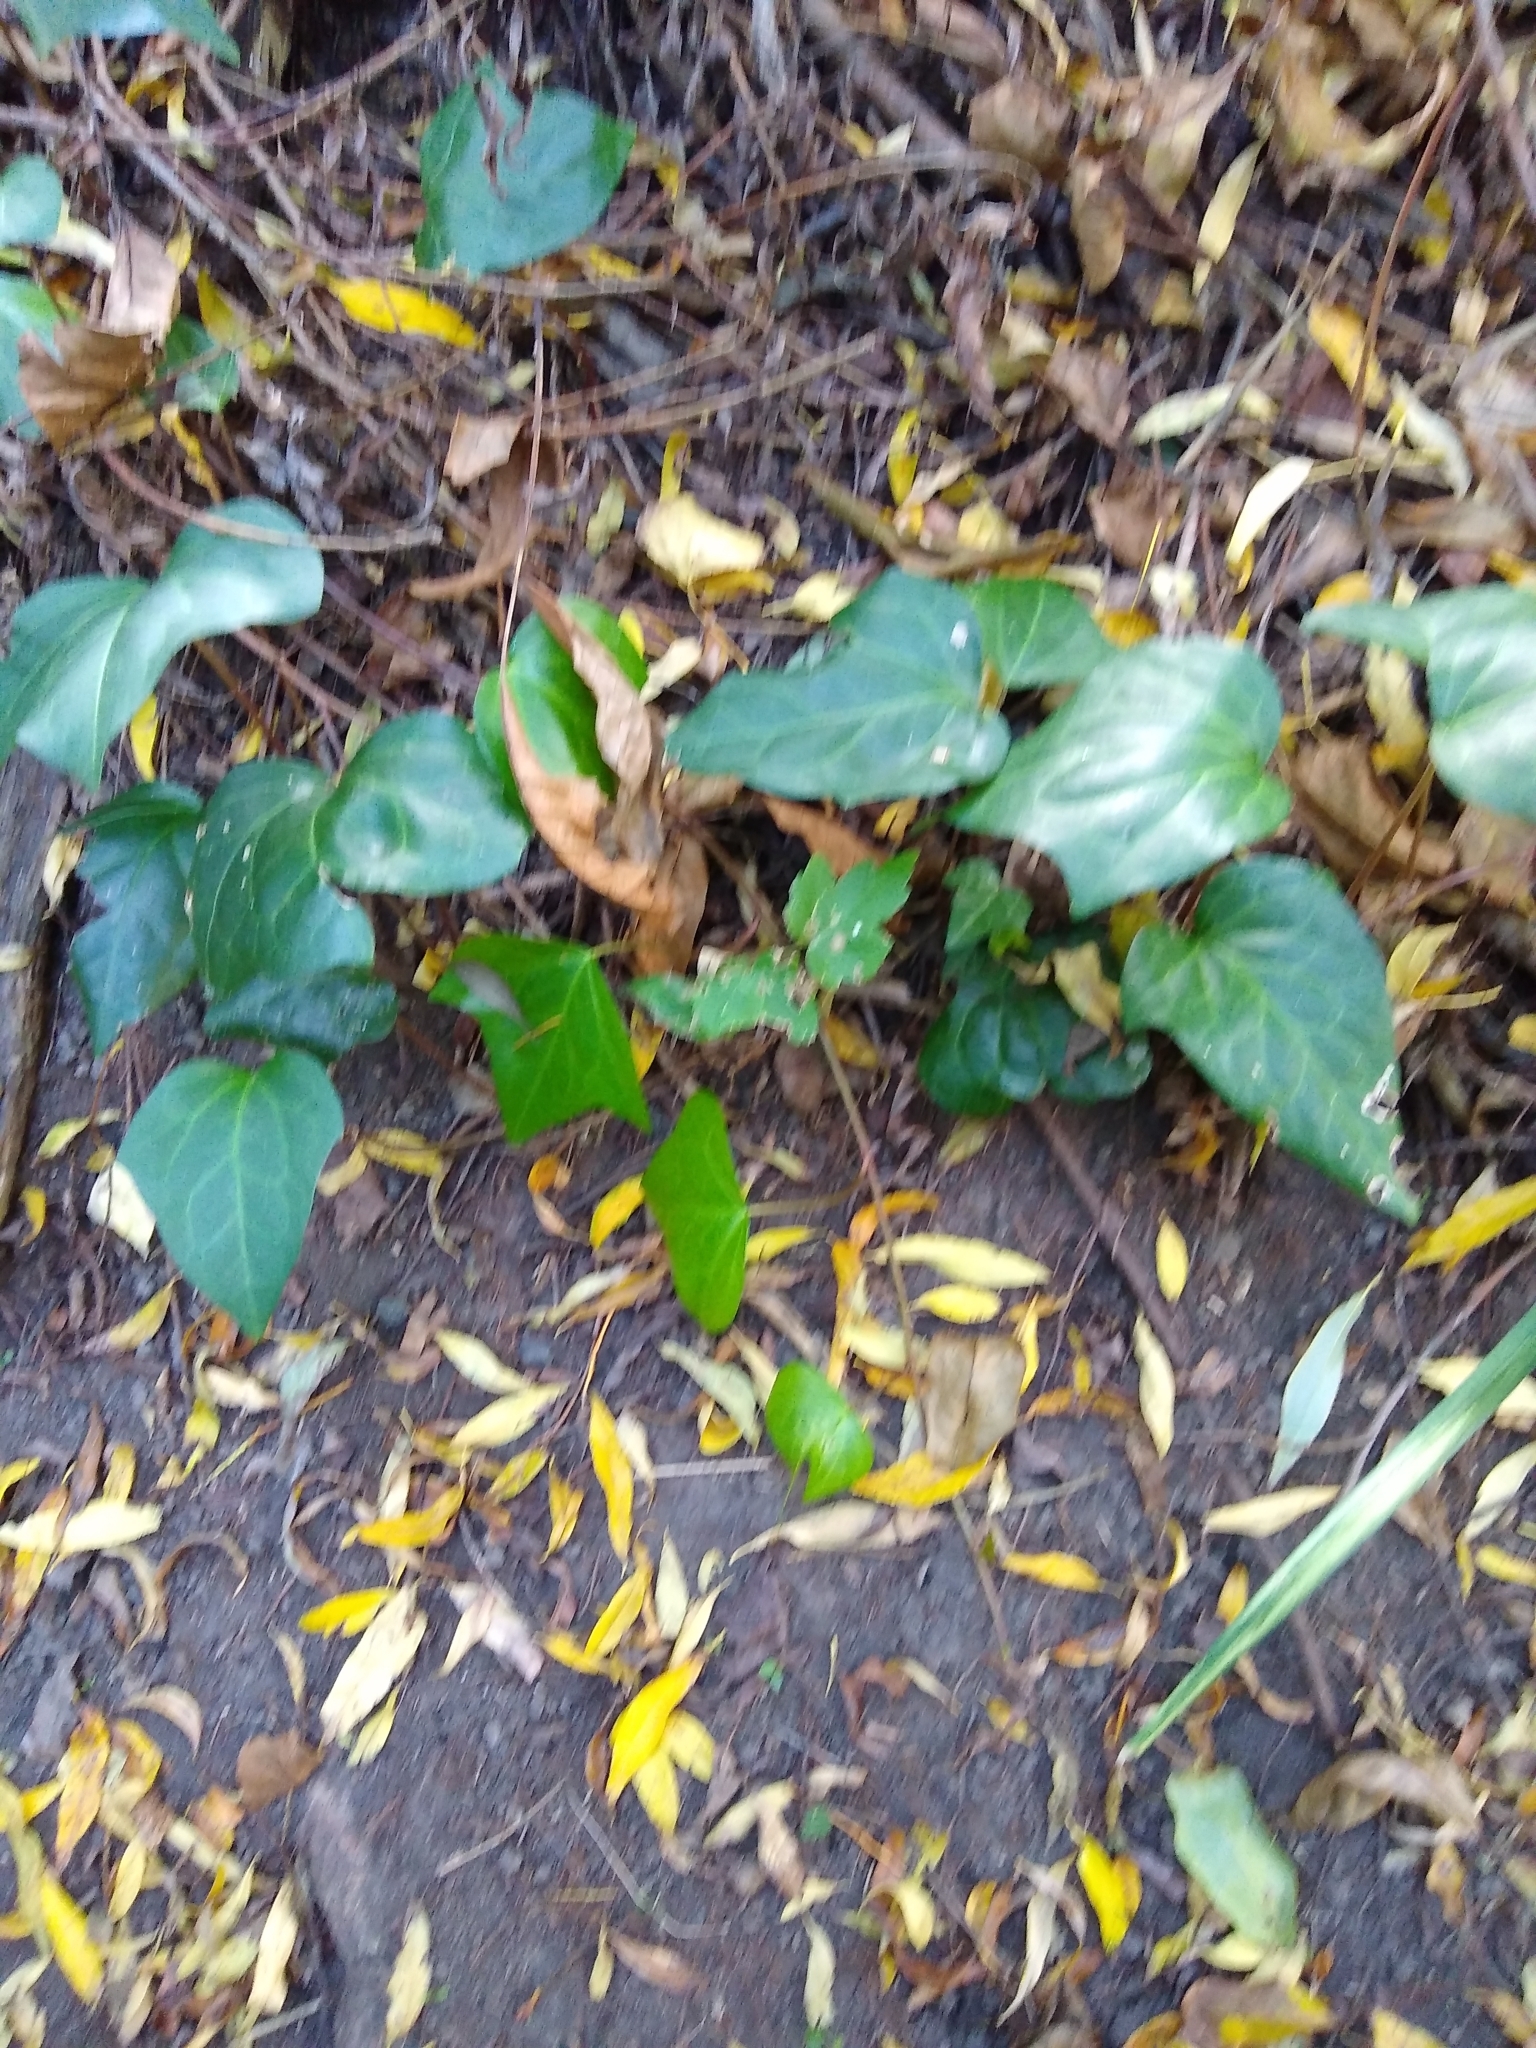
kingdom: Plantae
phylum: Tracheophyta
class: Magnoliopsida
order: Apiales
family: Araliaceae
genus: Hedera
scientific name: Hedera helix
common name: Ivy
